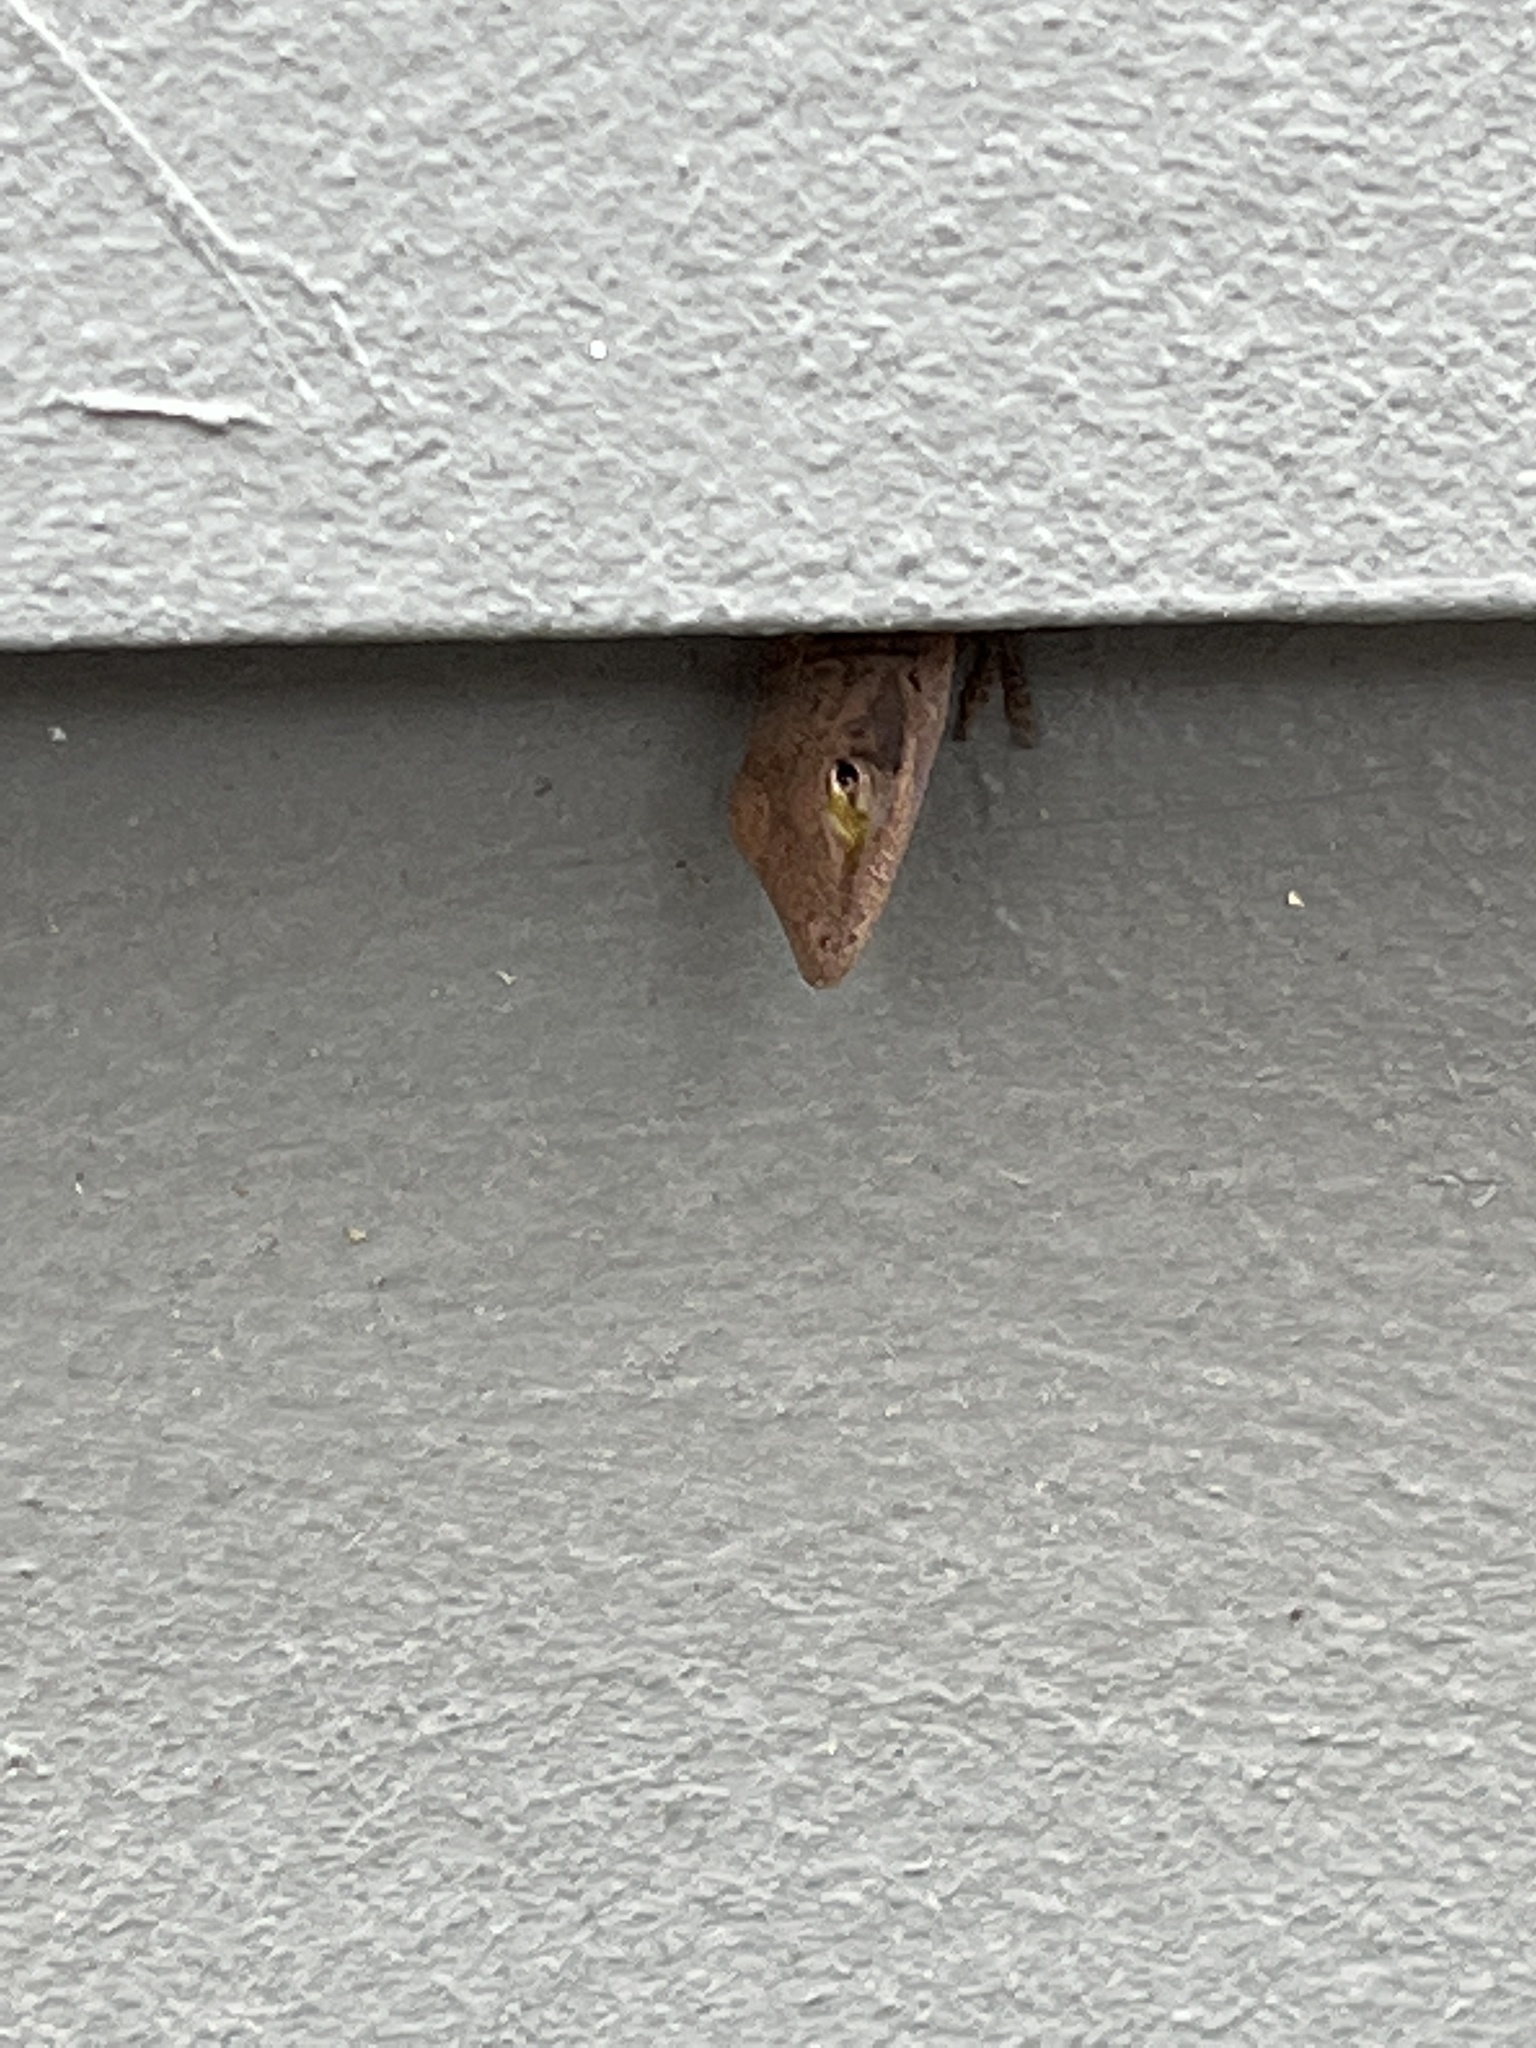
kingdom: Animalia
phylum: Chordata
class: Squamata
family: Dactyloidae
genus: Anolis
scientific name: Anolis carolinensis
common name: Green anole
